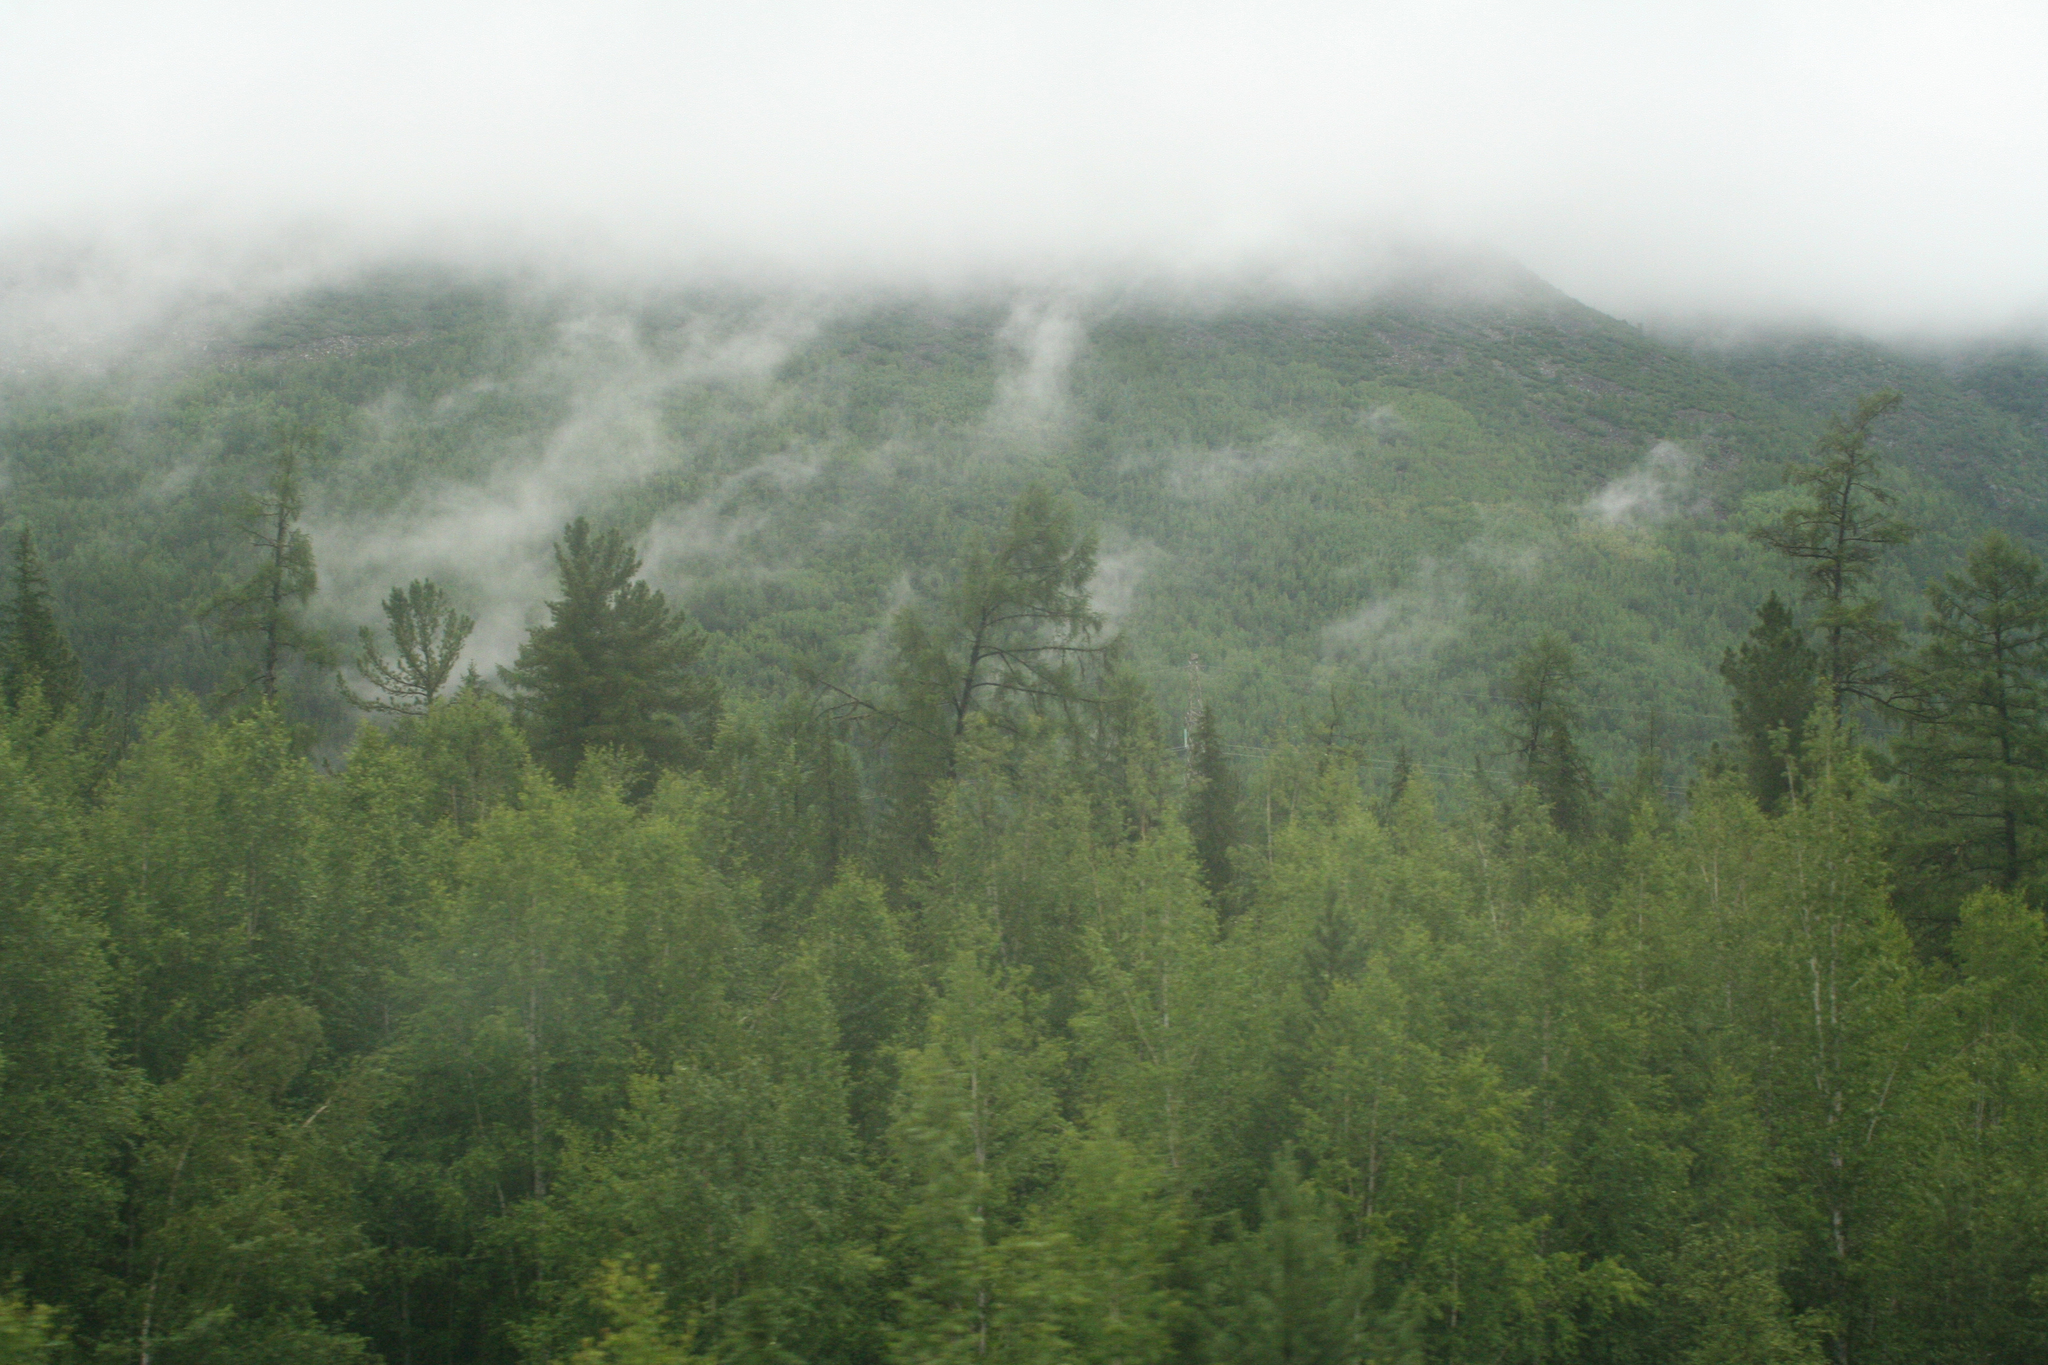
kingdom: Plantae
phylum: Tracheophyta
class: Pinopsida
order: Pinales
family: Pinaceae
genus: Pinus
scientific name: Pinus sibirica
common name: Siberian pine
